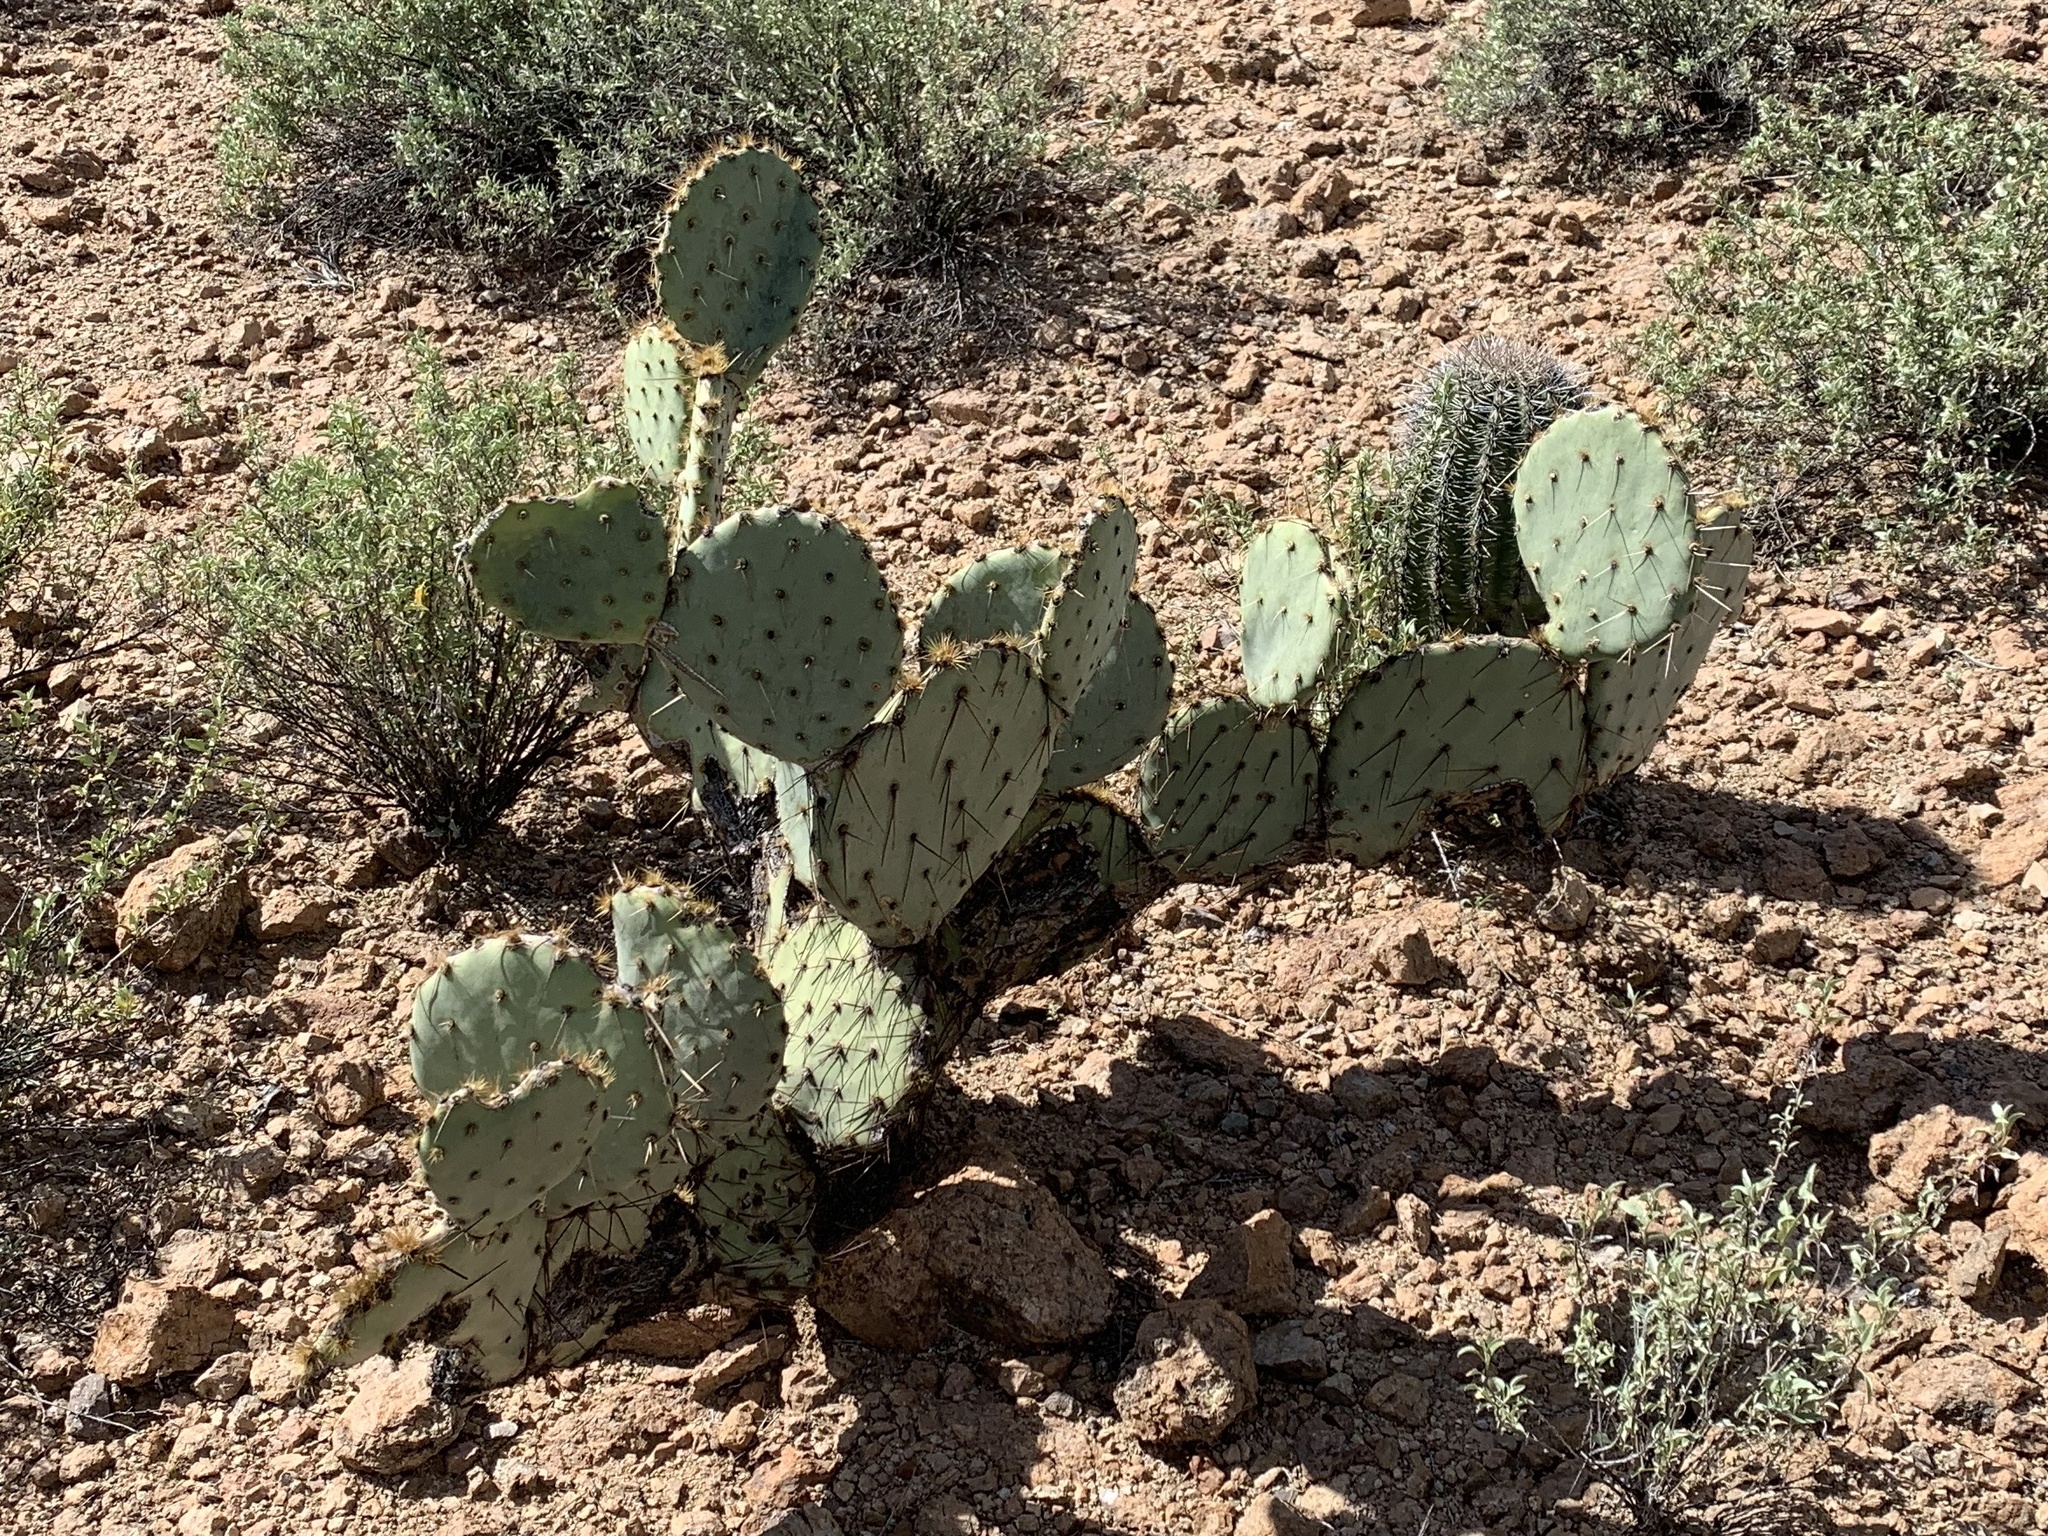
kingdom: Plantae
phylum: Tracheophyta
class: Magnoliopsida
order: Caryophyllales
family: Cactaceae
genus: Opuntia
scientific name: Opuntia engelmannii
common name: Cactus-apple
